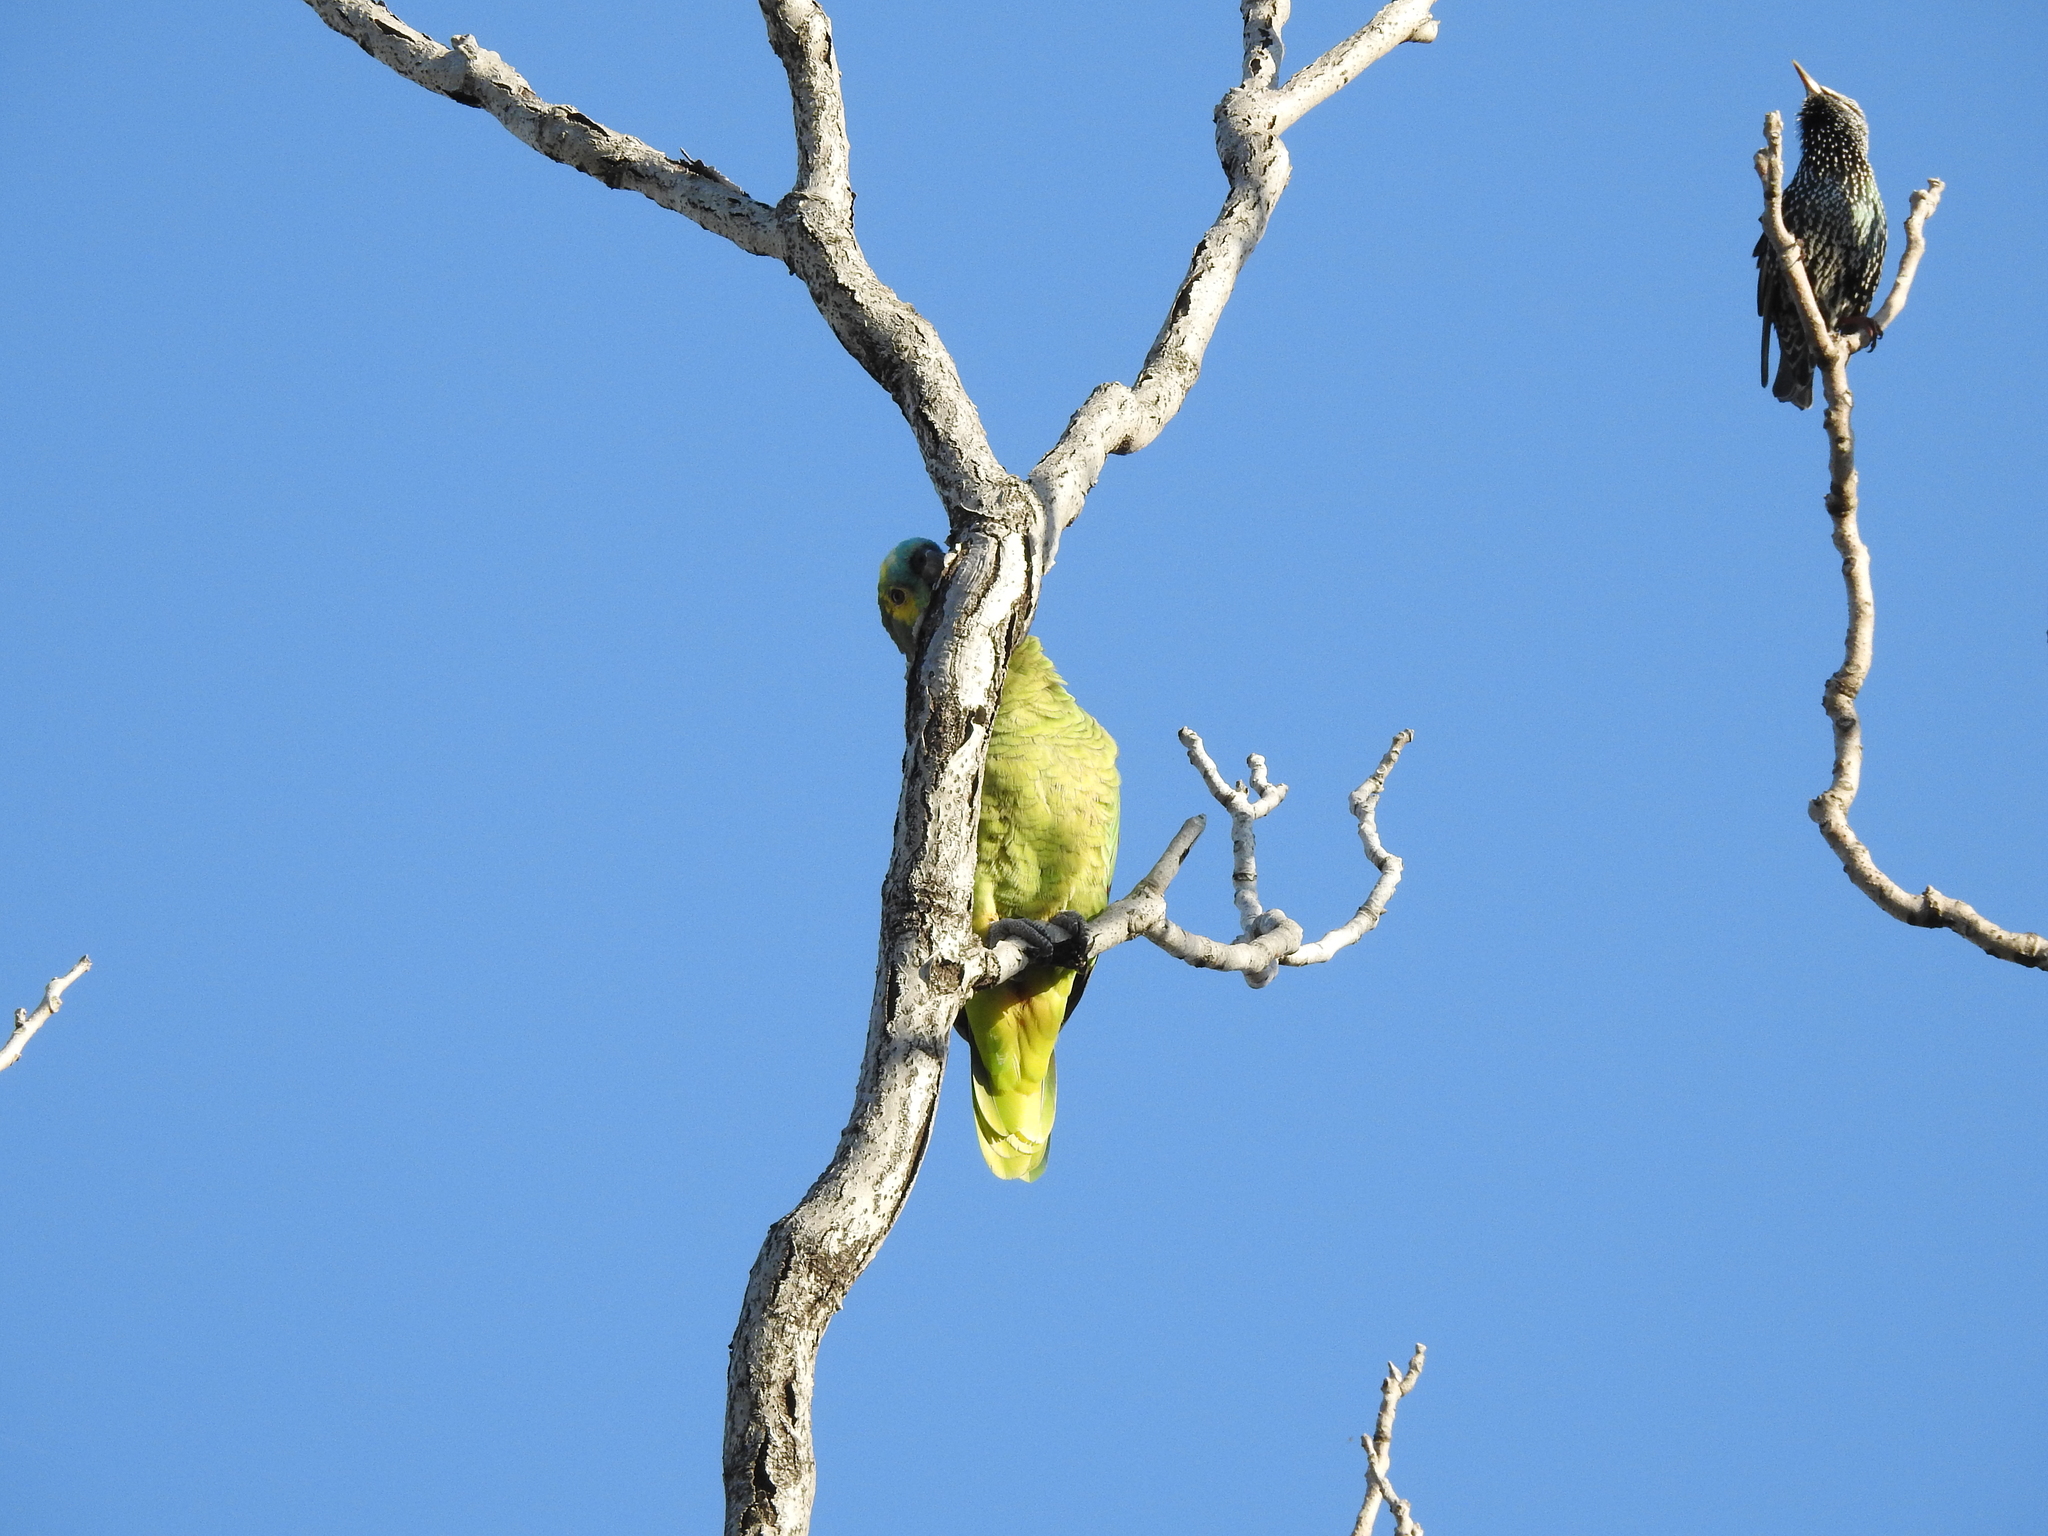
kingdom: Animalia
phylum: Chordata
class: Aves
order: Psittaciformes
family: Psittacidae
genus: Amazona
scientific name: Amazona aestiva
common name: Turquoise-fronted amazon
